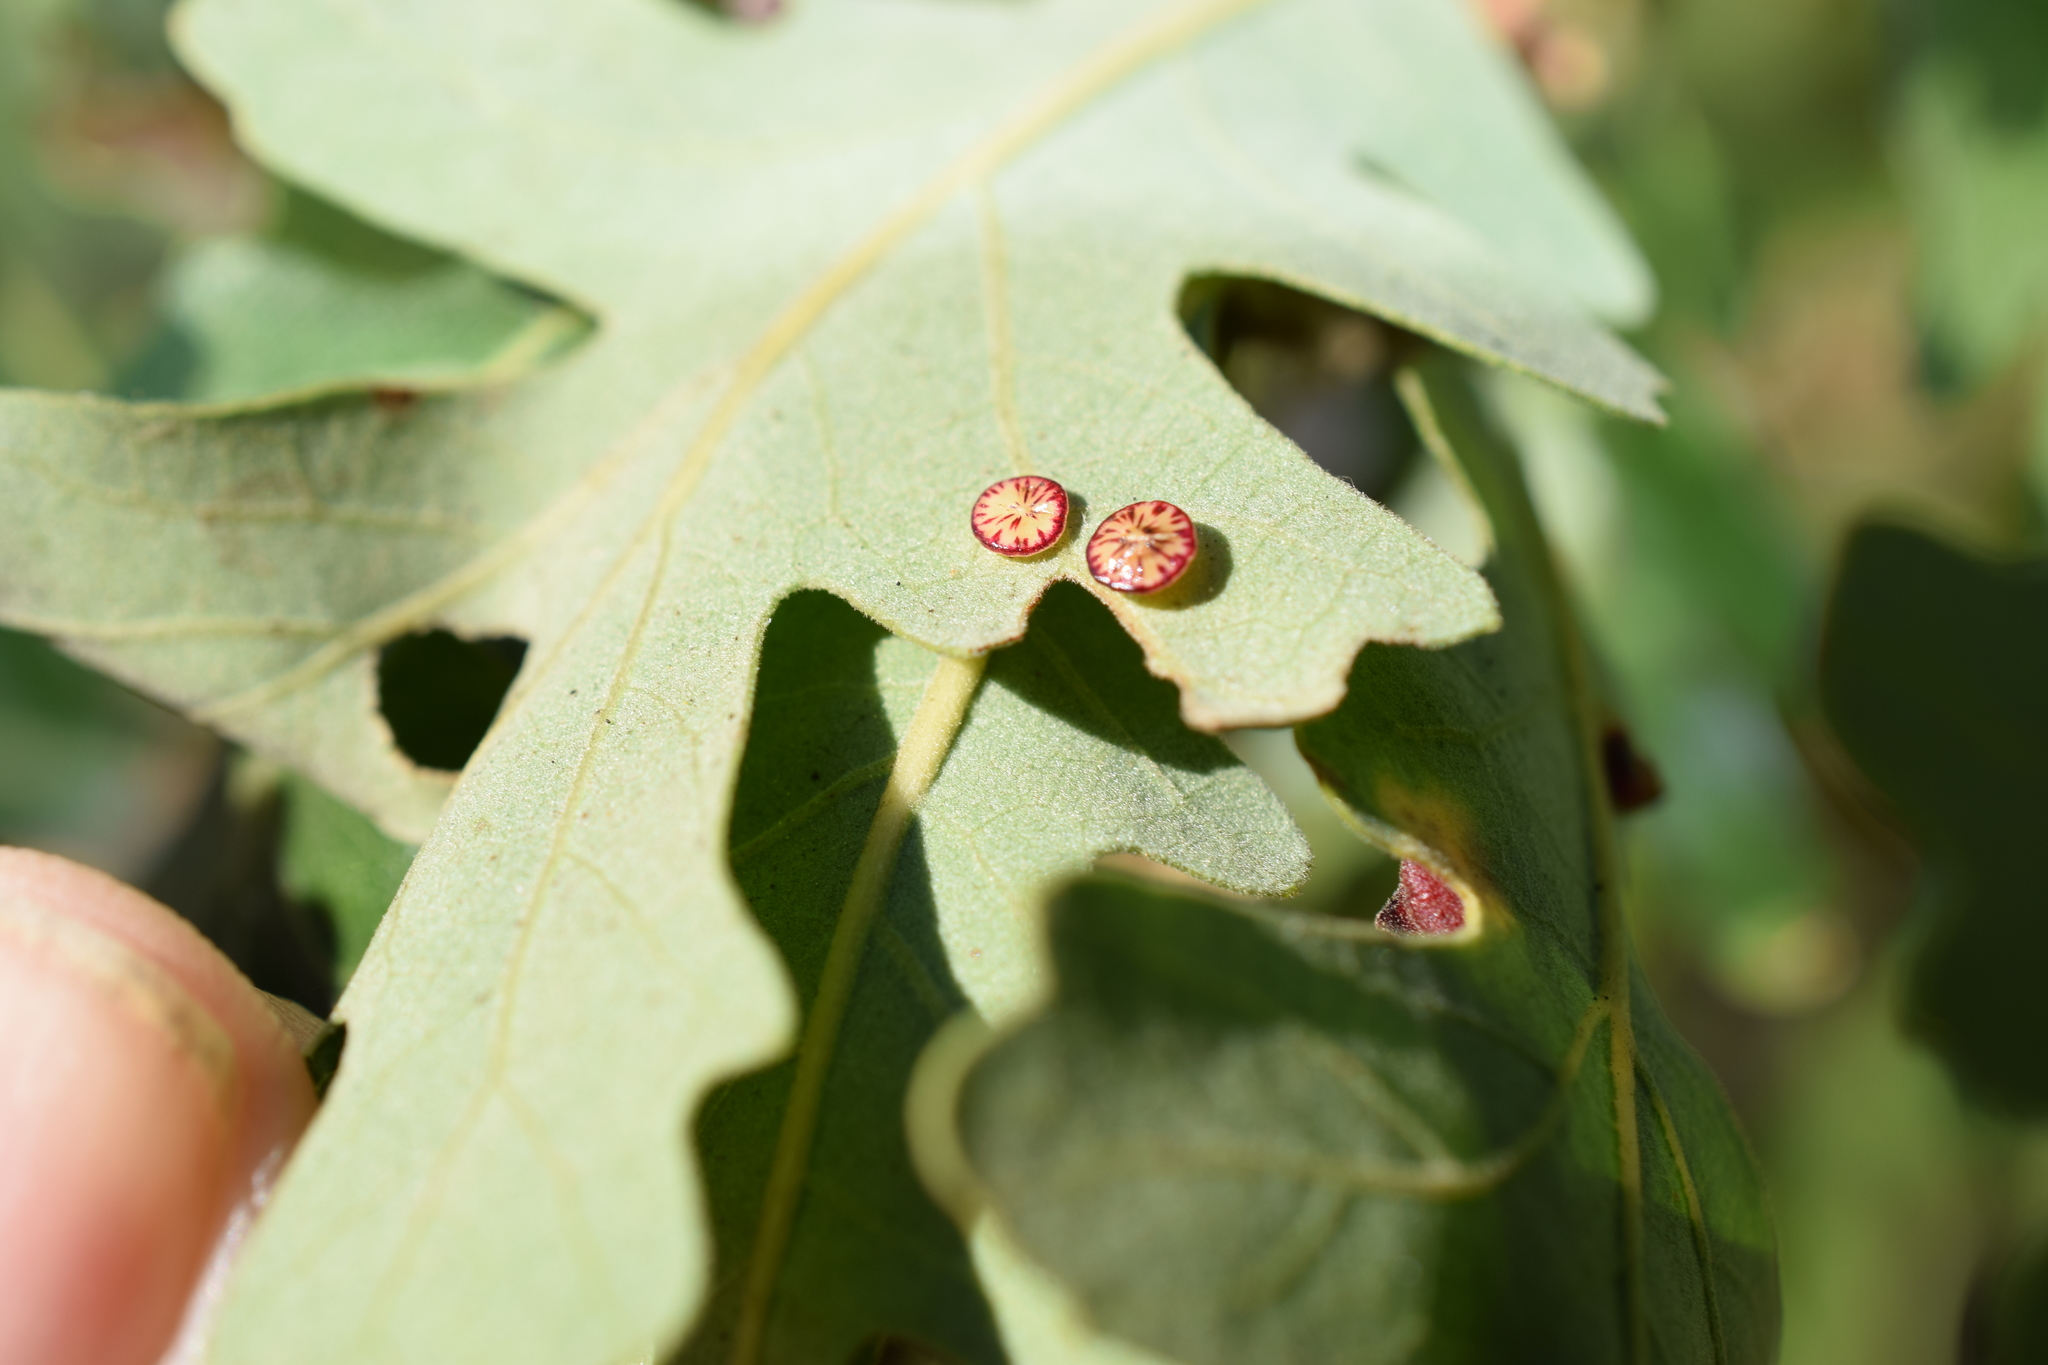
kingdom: Animalia
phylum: Arthropoda
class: Insecta
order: Hymenoptera
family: Cynipidae
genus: Andricus
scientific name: Andricus
